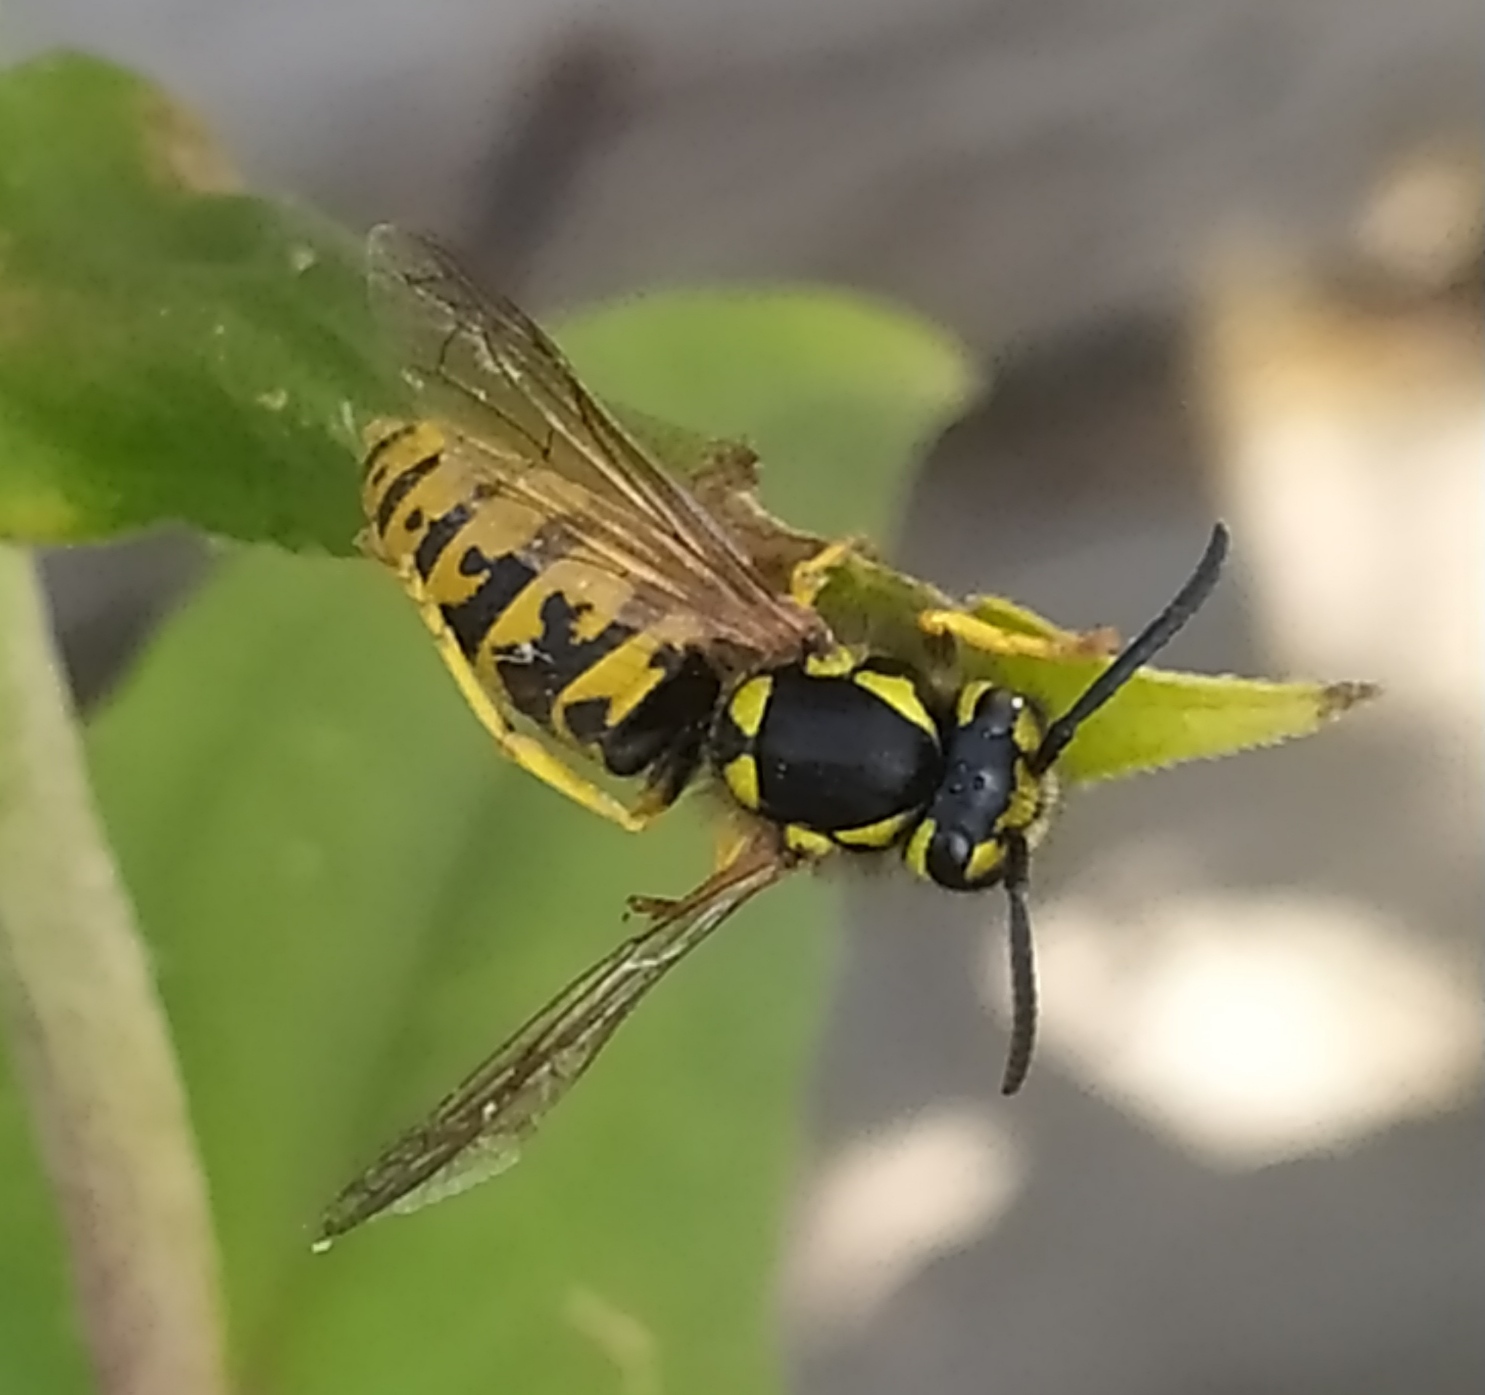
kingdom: Animalia
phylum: Arthropoda
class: Insecta
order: Hymenoptera
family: Vespidae
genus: Vespula
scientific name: Vespula germanica
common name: German wasp
